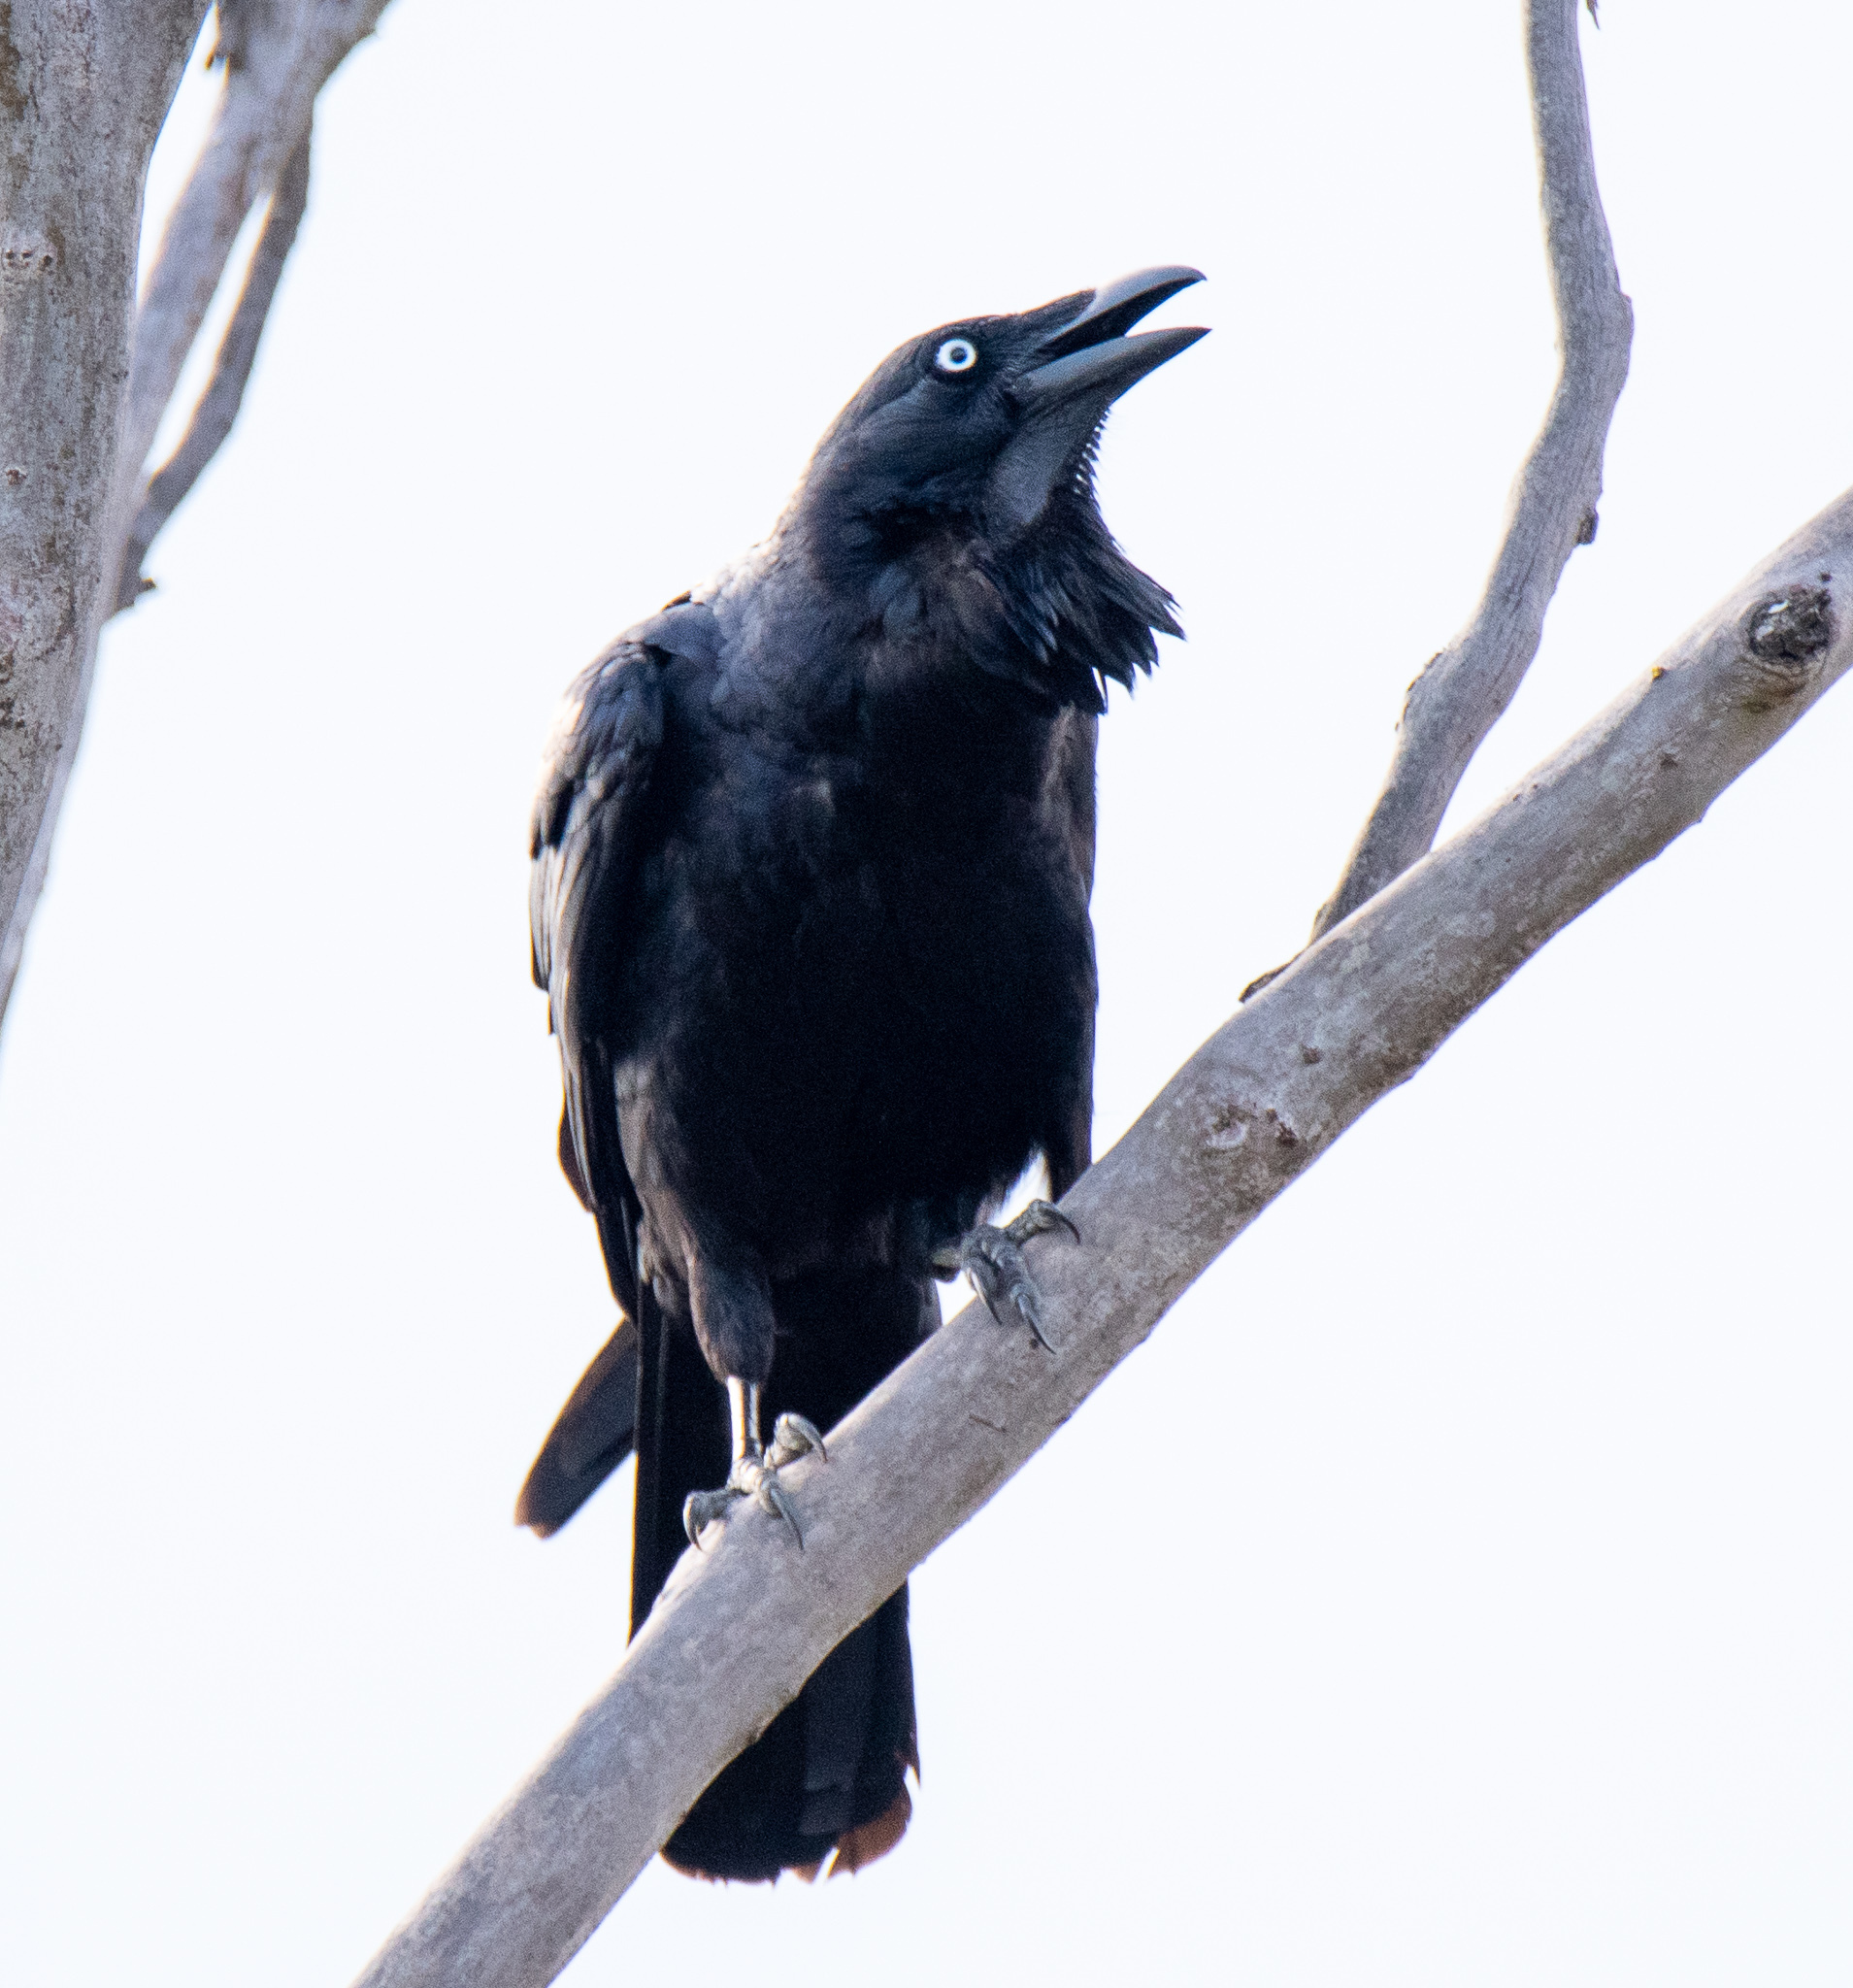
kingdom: Animalia
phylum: Chordata
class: Aves
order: Passeriformes
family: Corvidae
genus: Corvus
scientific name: Corvus coronoides
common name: Australian raven
